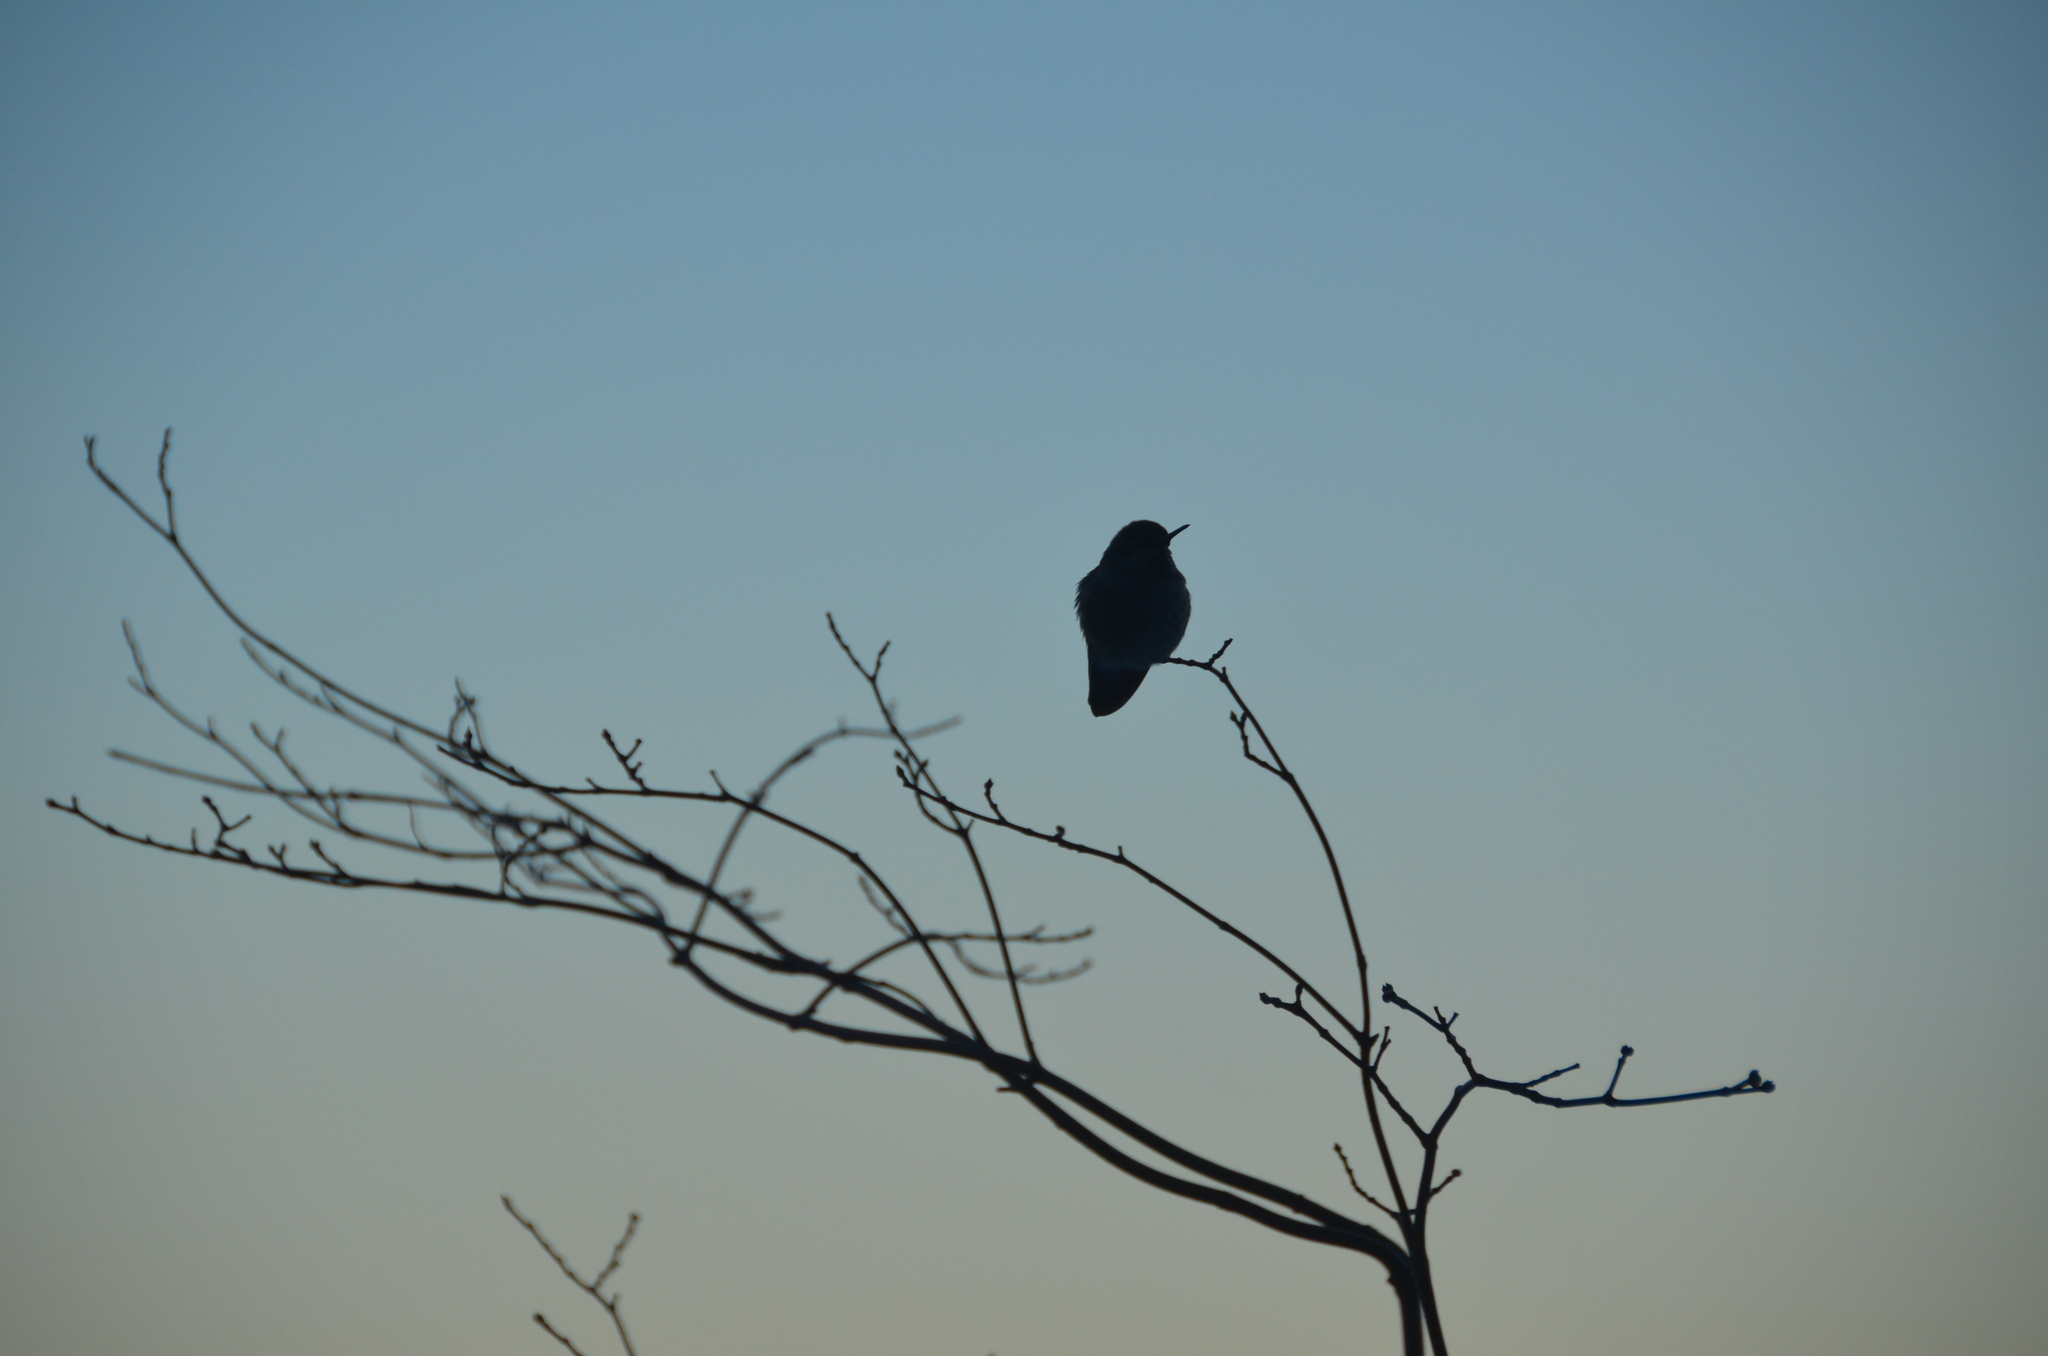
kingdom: Animalia
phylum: Chordata
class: Aves
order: Apodiformes
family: Trochilidae
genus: Calypte
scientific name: Calypte anna
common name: Anna's hummingbird
